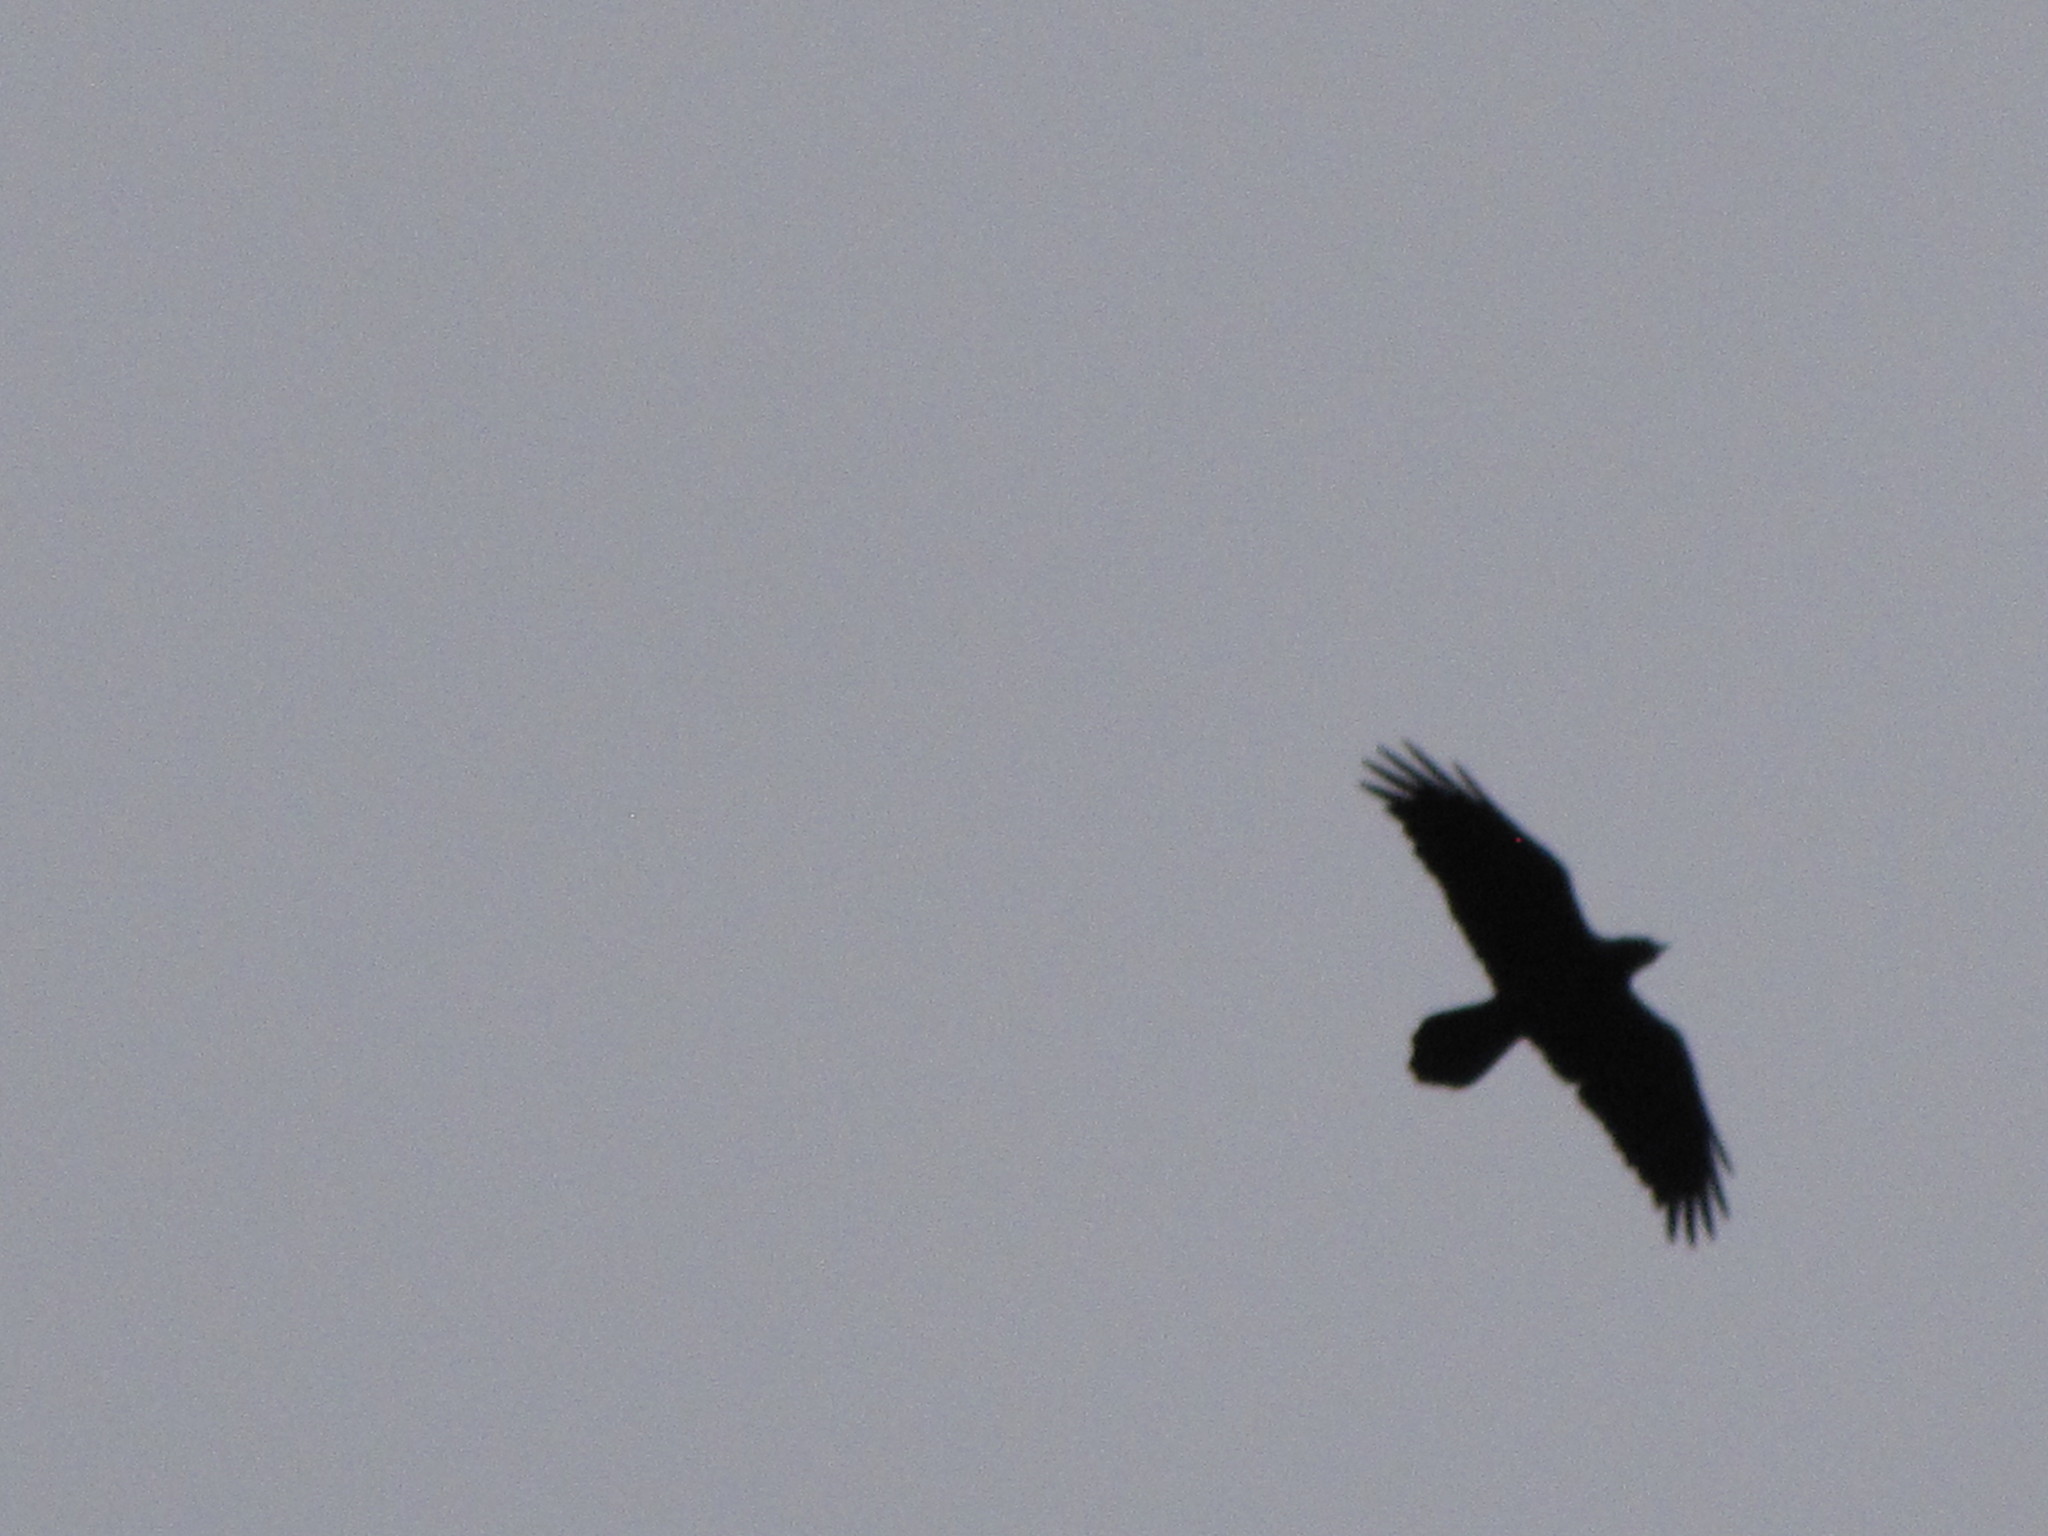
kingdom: Animalia
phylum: Chordata
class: Aves
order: Passeriformes
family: Corvidae
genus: Corvus
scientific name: Corvus corax
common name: Common raven
